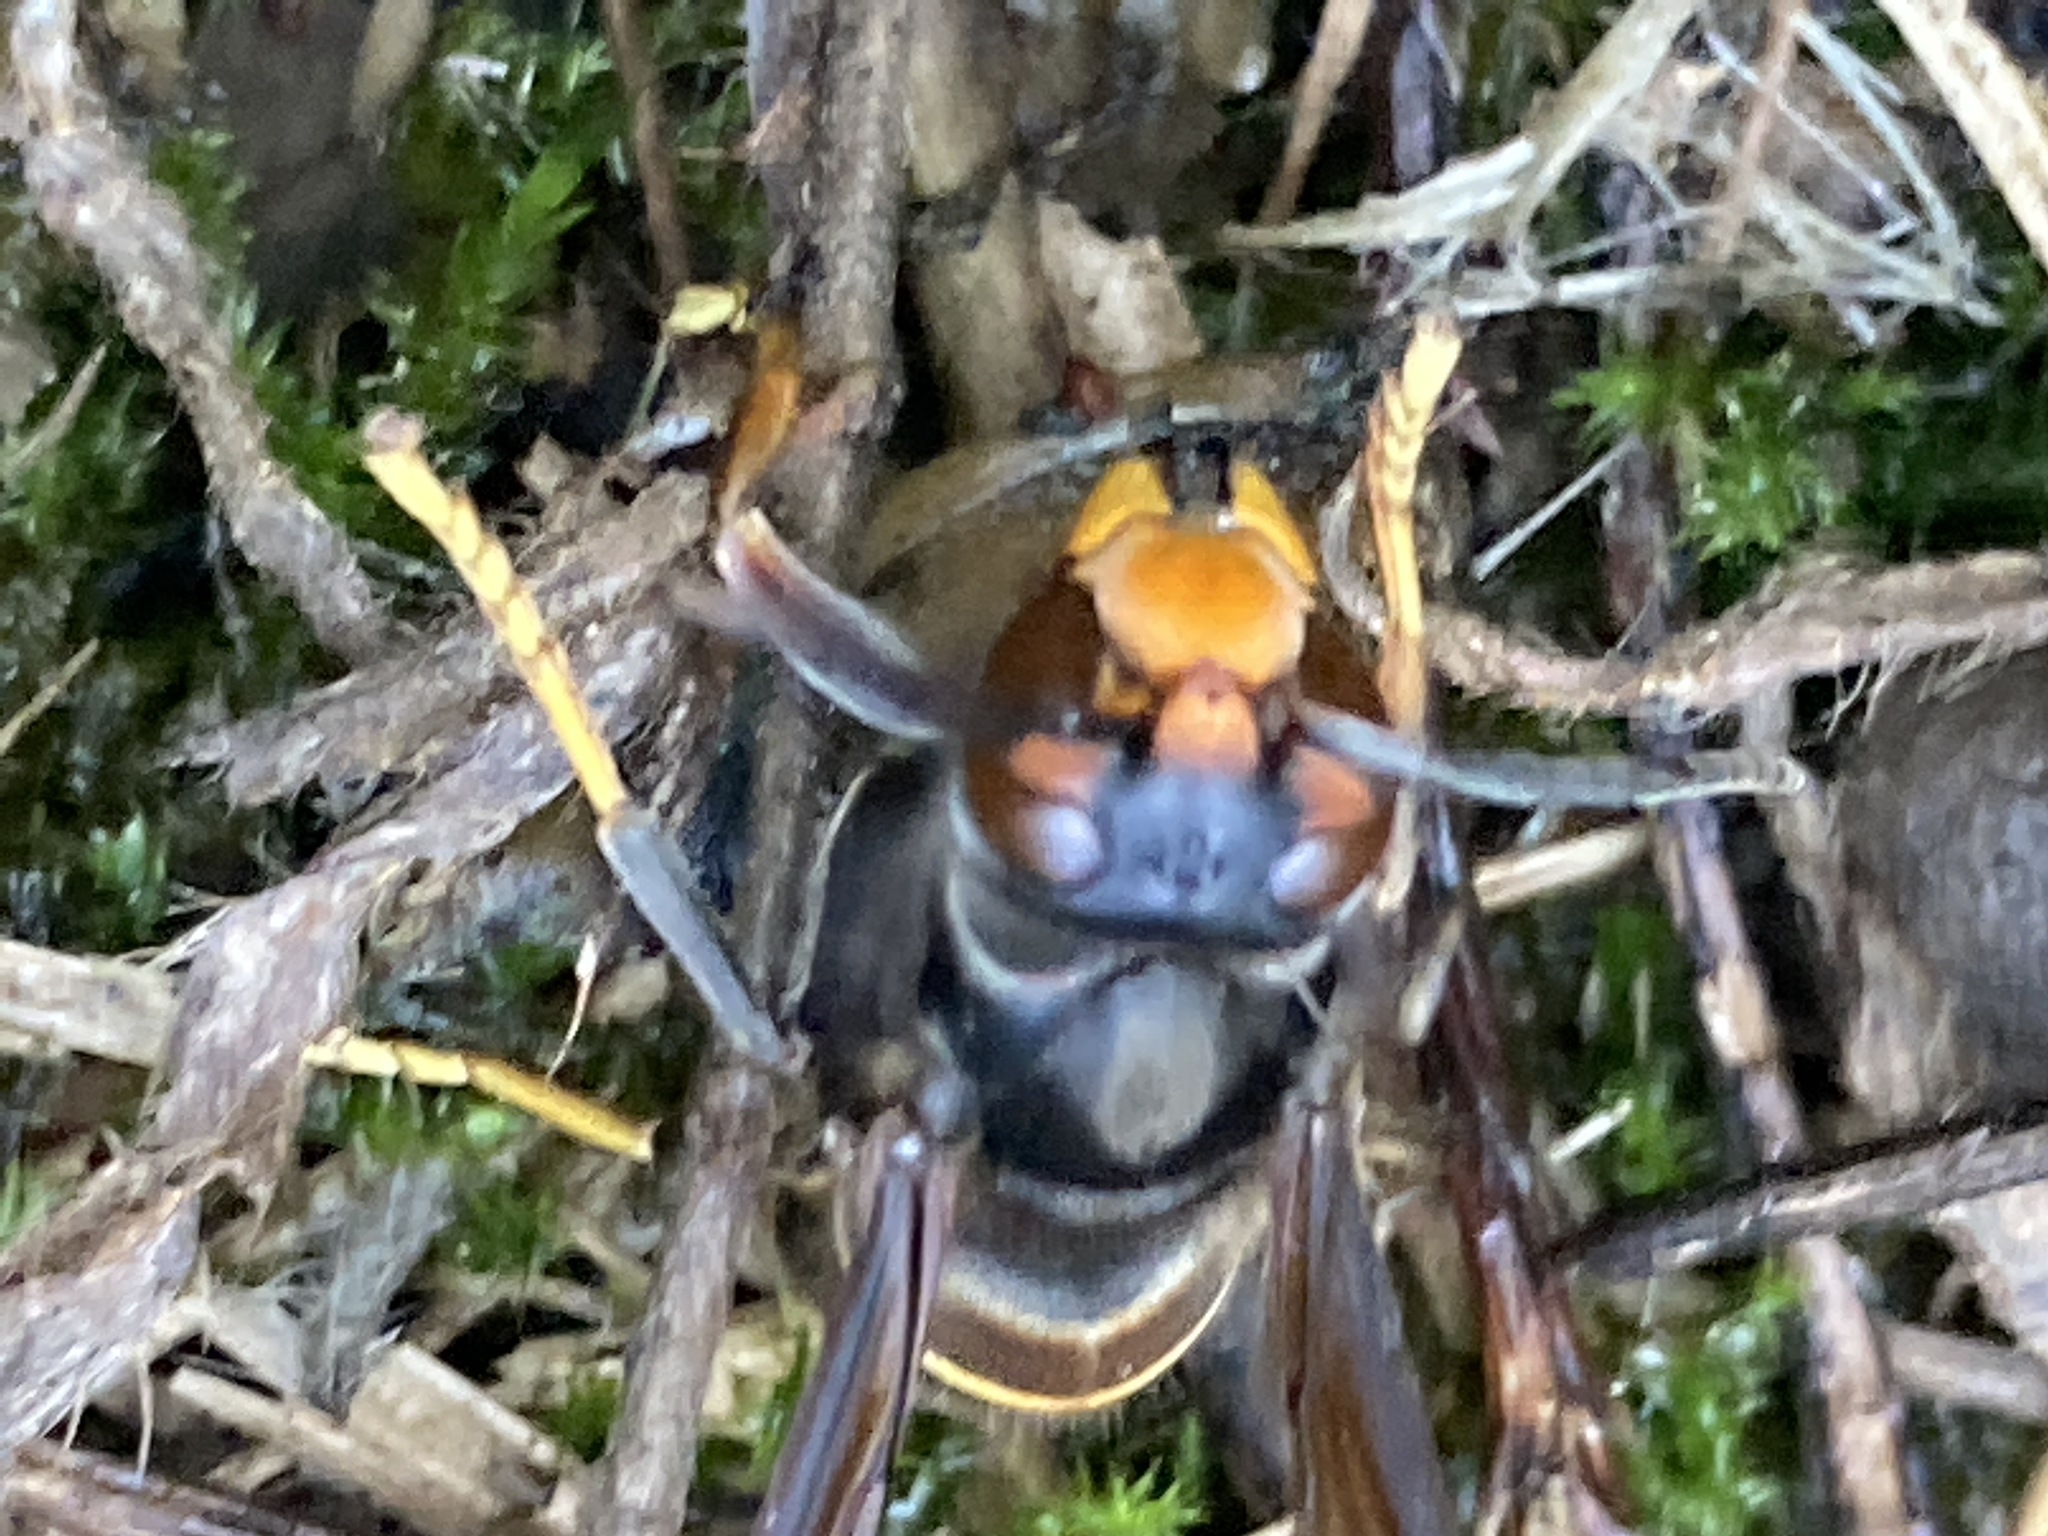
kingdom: Animalia
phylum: Arthropoda
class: Insecta
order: Hymenoptera
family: Vespidae
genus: Vespa
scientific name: Vespa velutina
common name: Asian hornet
